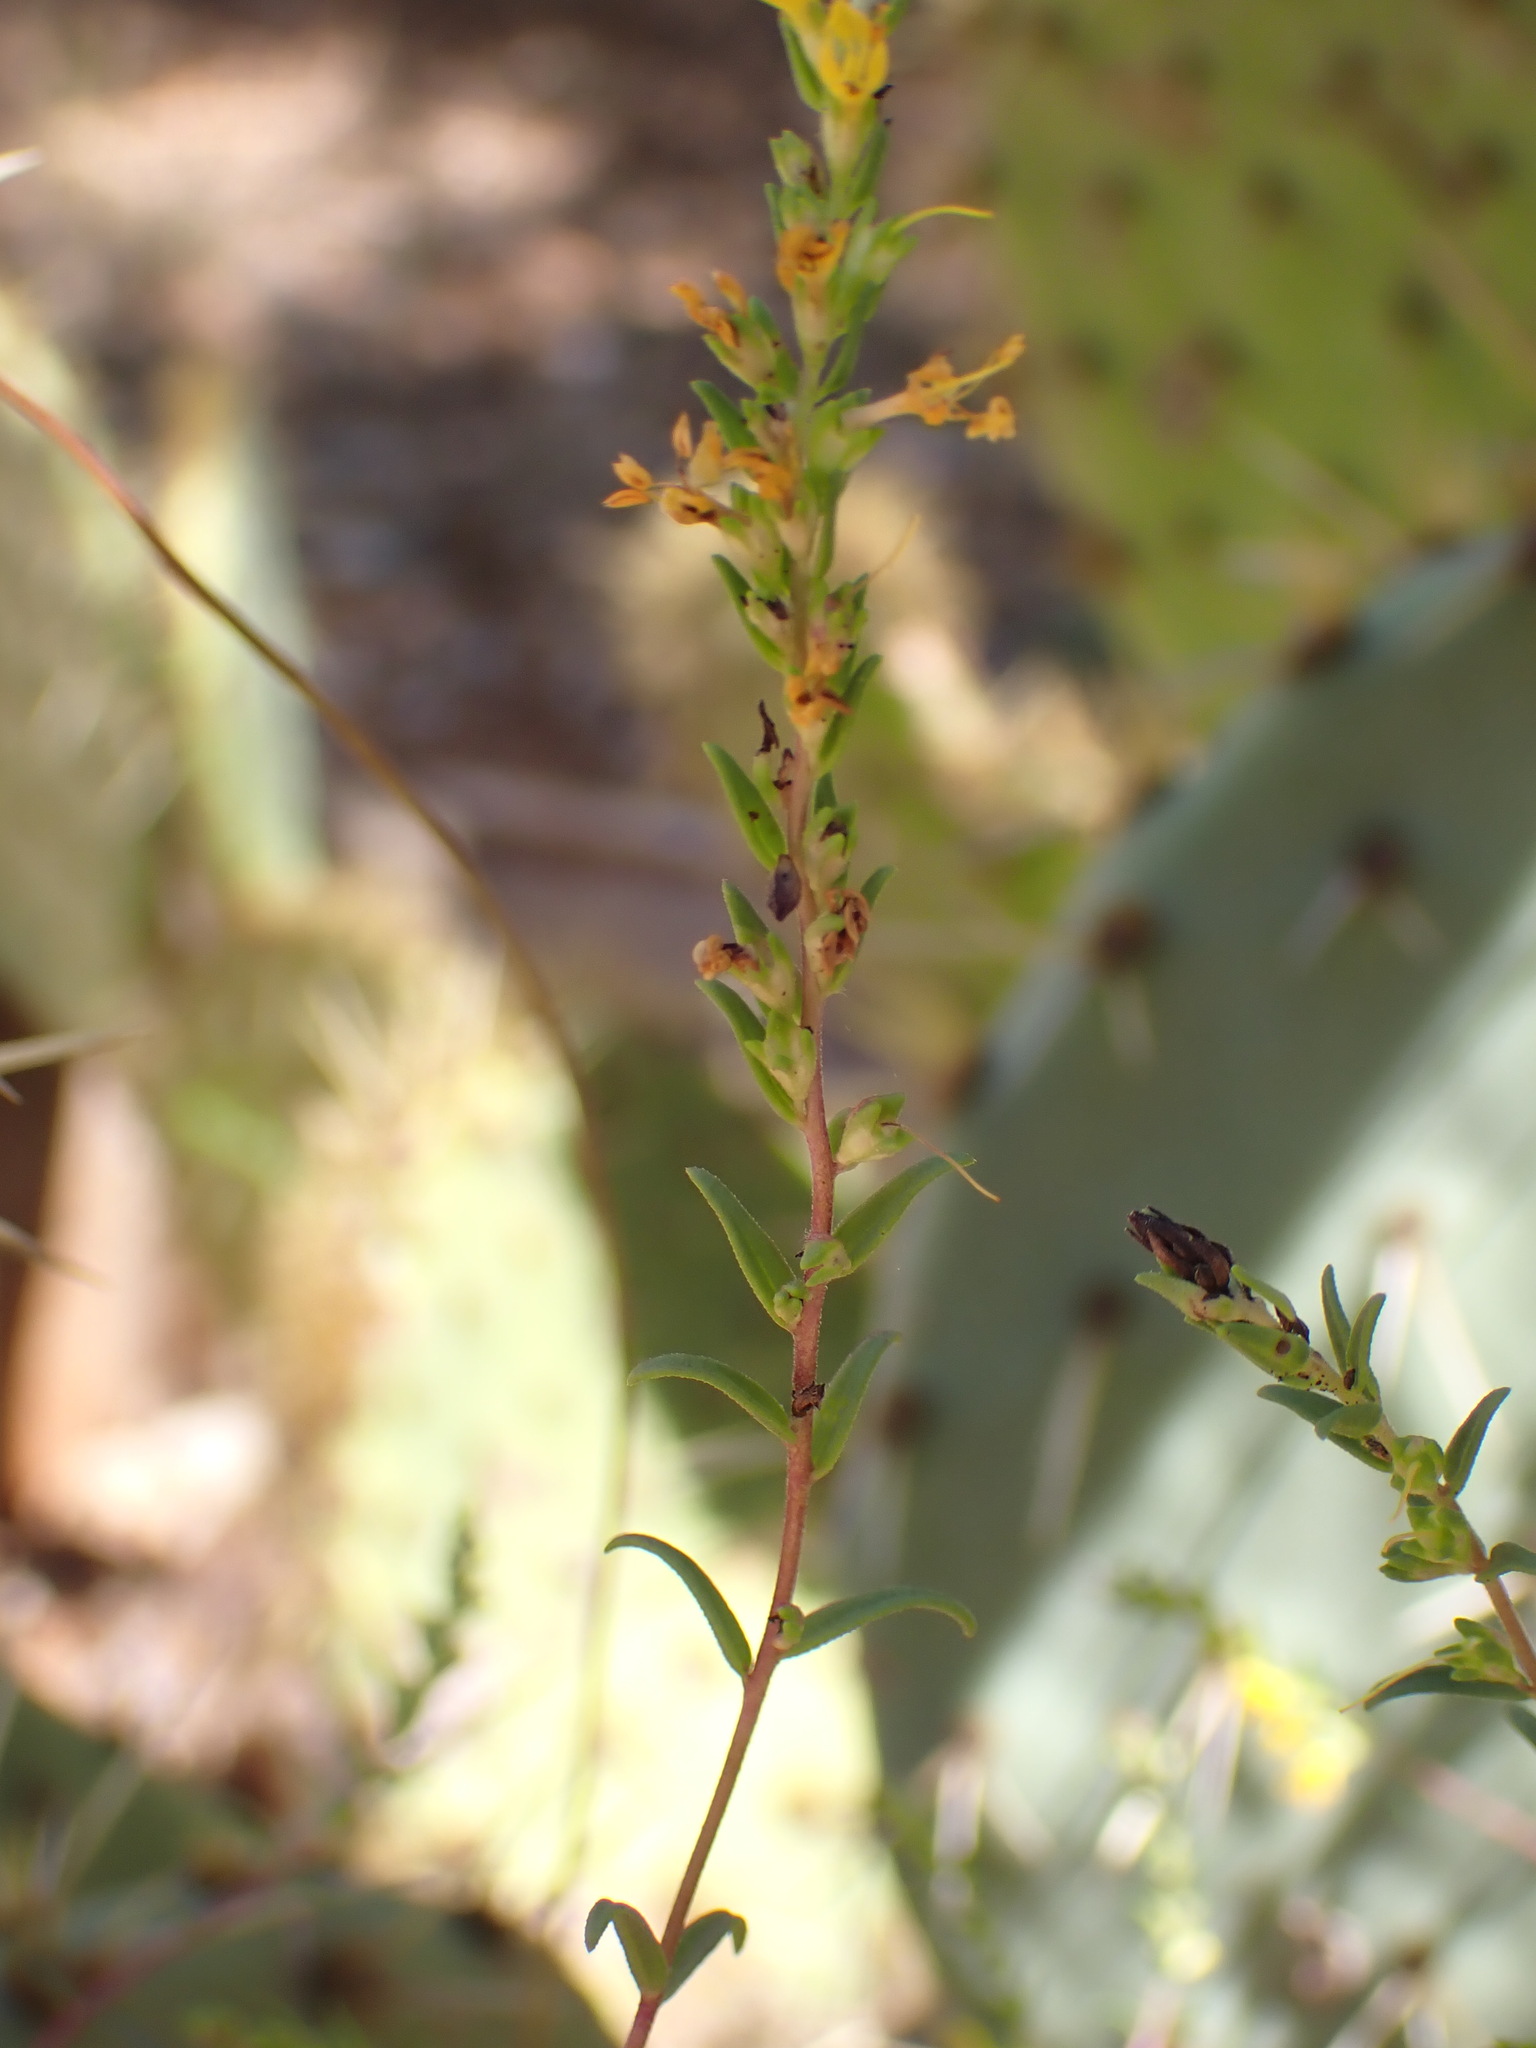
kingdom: Plantae
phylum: Tracheophyta
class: Magnoliopsida
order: Lamiales
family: Orobanchaceae
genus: Odontites
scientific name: Odontites luteus
